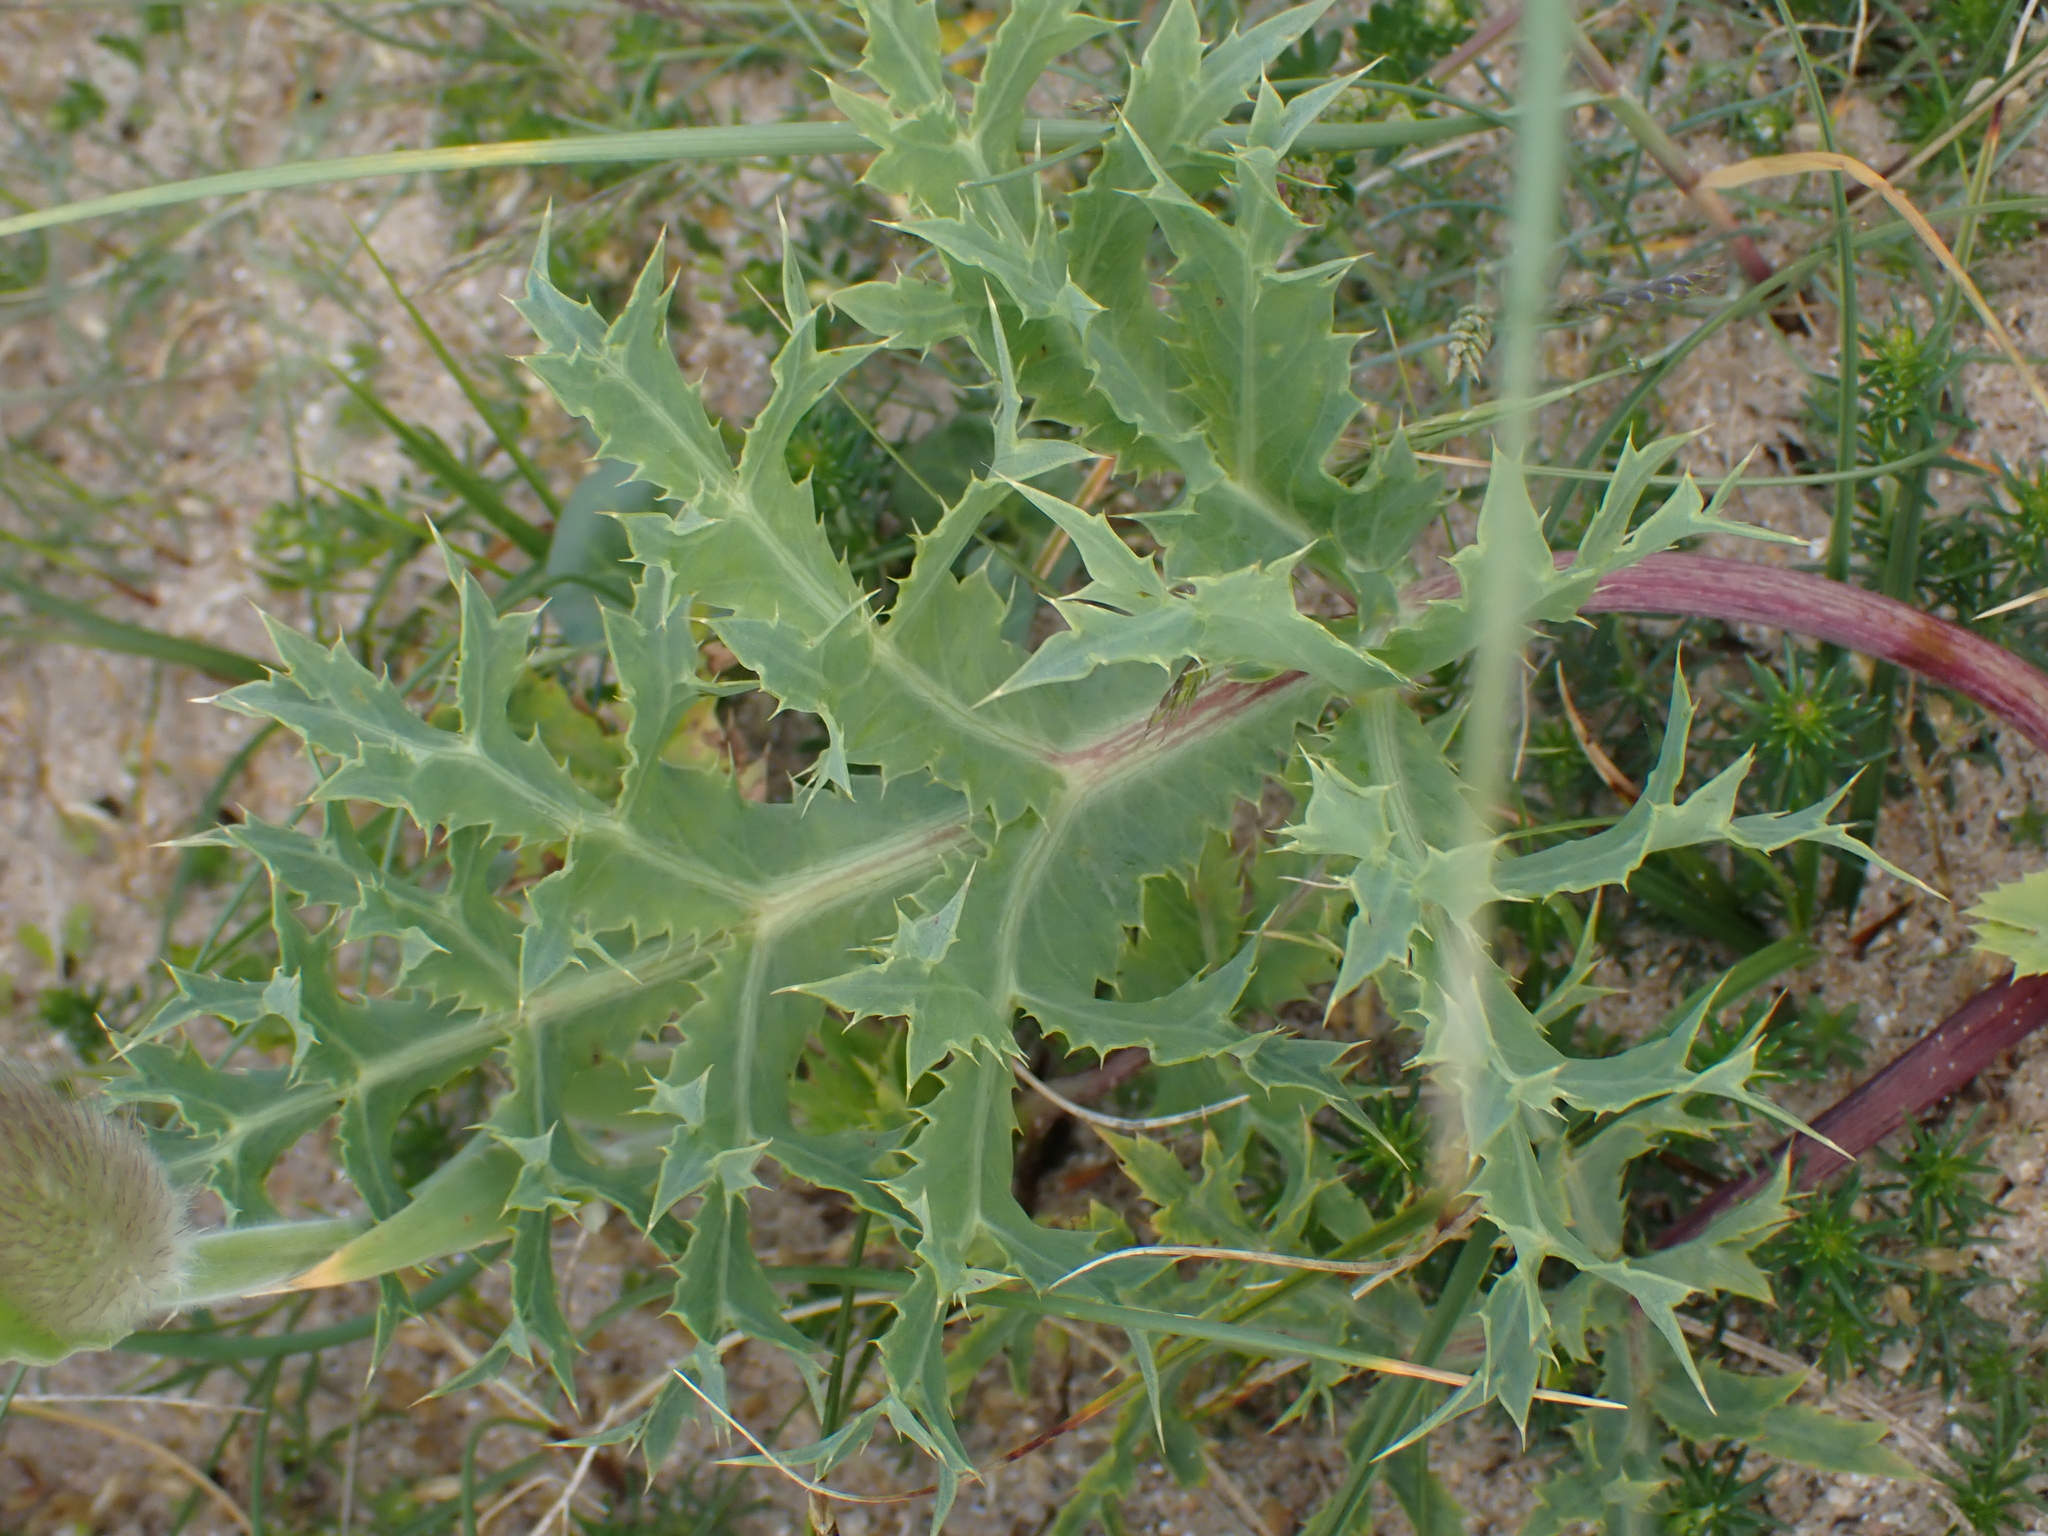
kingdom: Plantae
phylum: Tracheophyta
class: Magnoliopsida
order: Apiales
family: Apiaceae
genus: Eryngium
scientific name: Eryngium campestre
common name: Field eryngo
